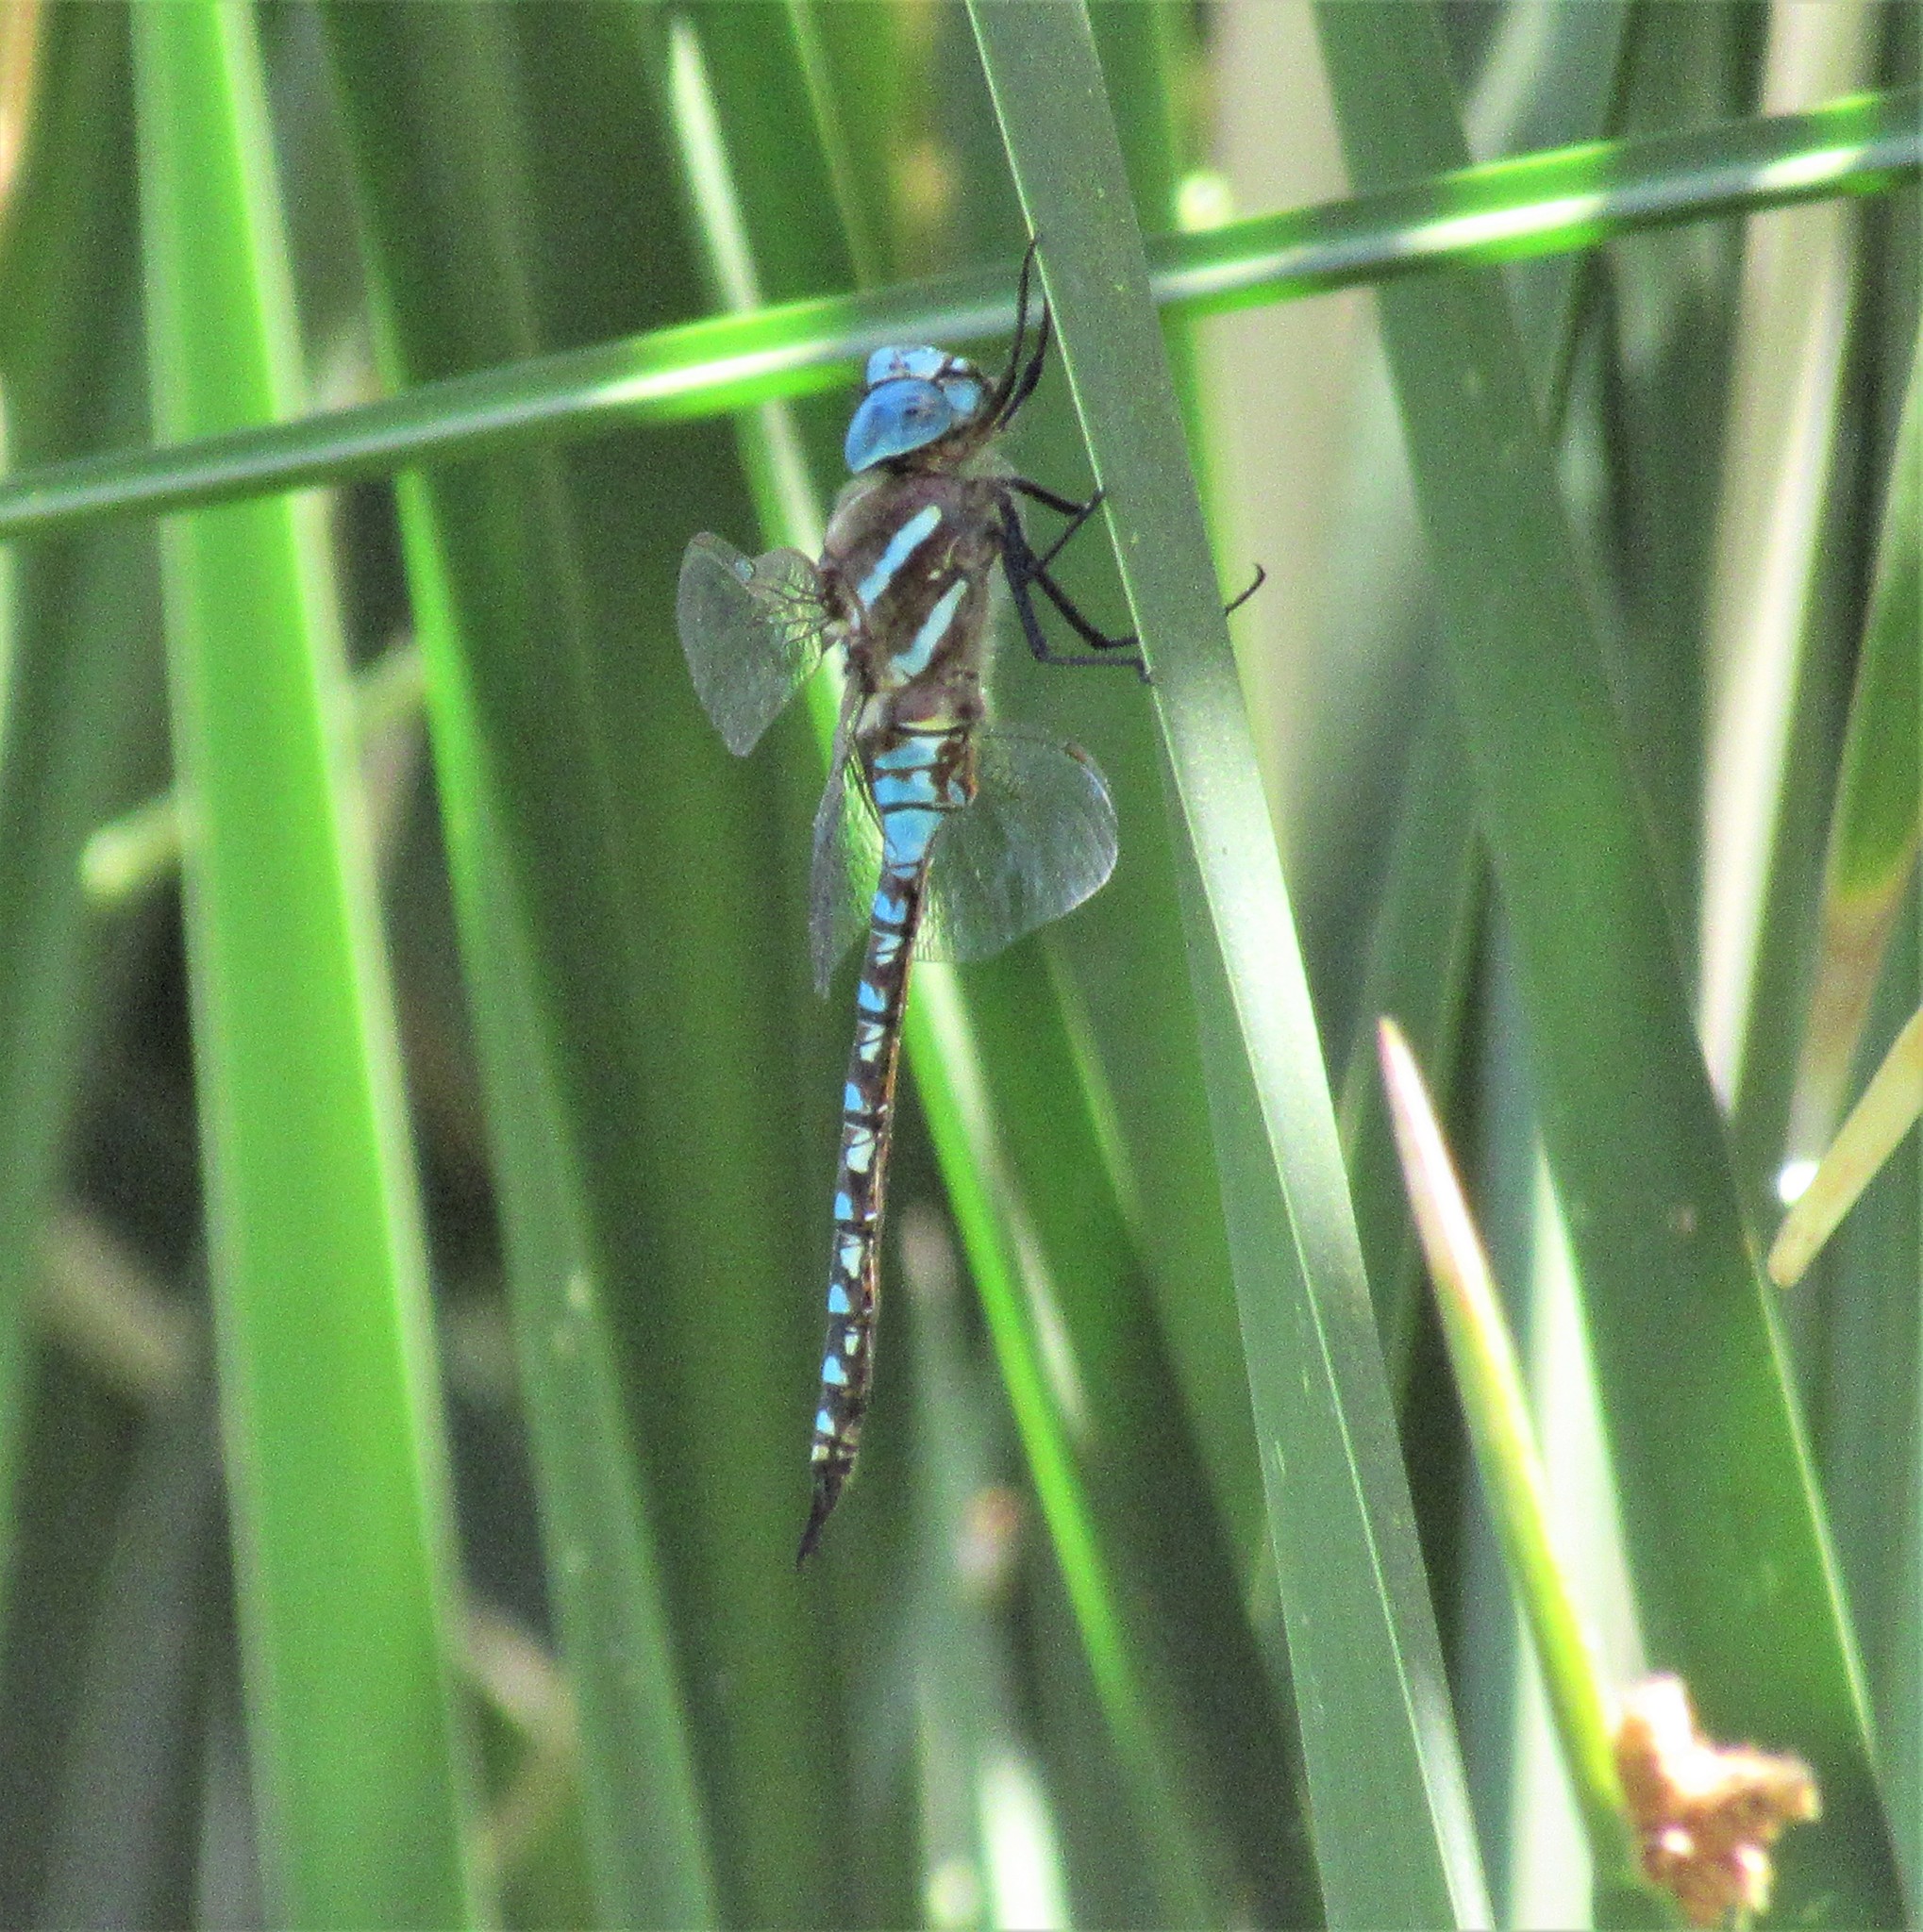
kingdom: Animalia
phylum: Arthropoda
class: Insecta
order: Odonata
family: Aeshnidae
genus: Rhionaeschna
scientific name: Rhionaeschna multicolor
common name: Blue-eyed darner
